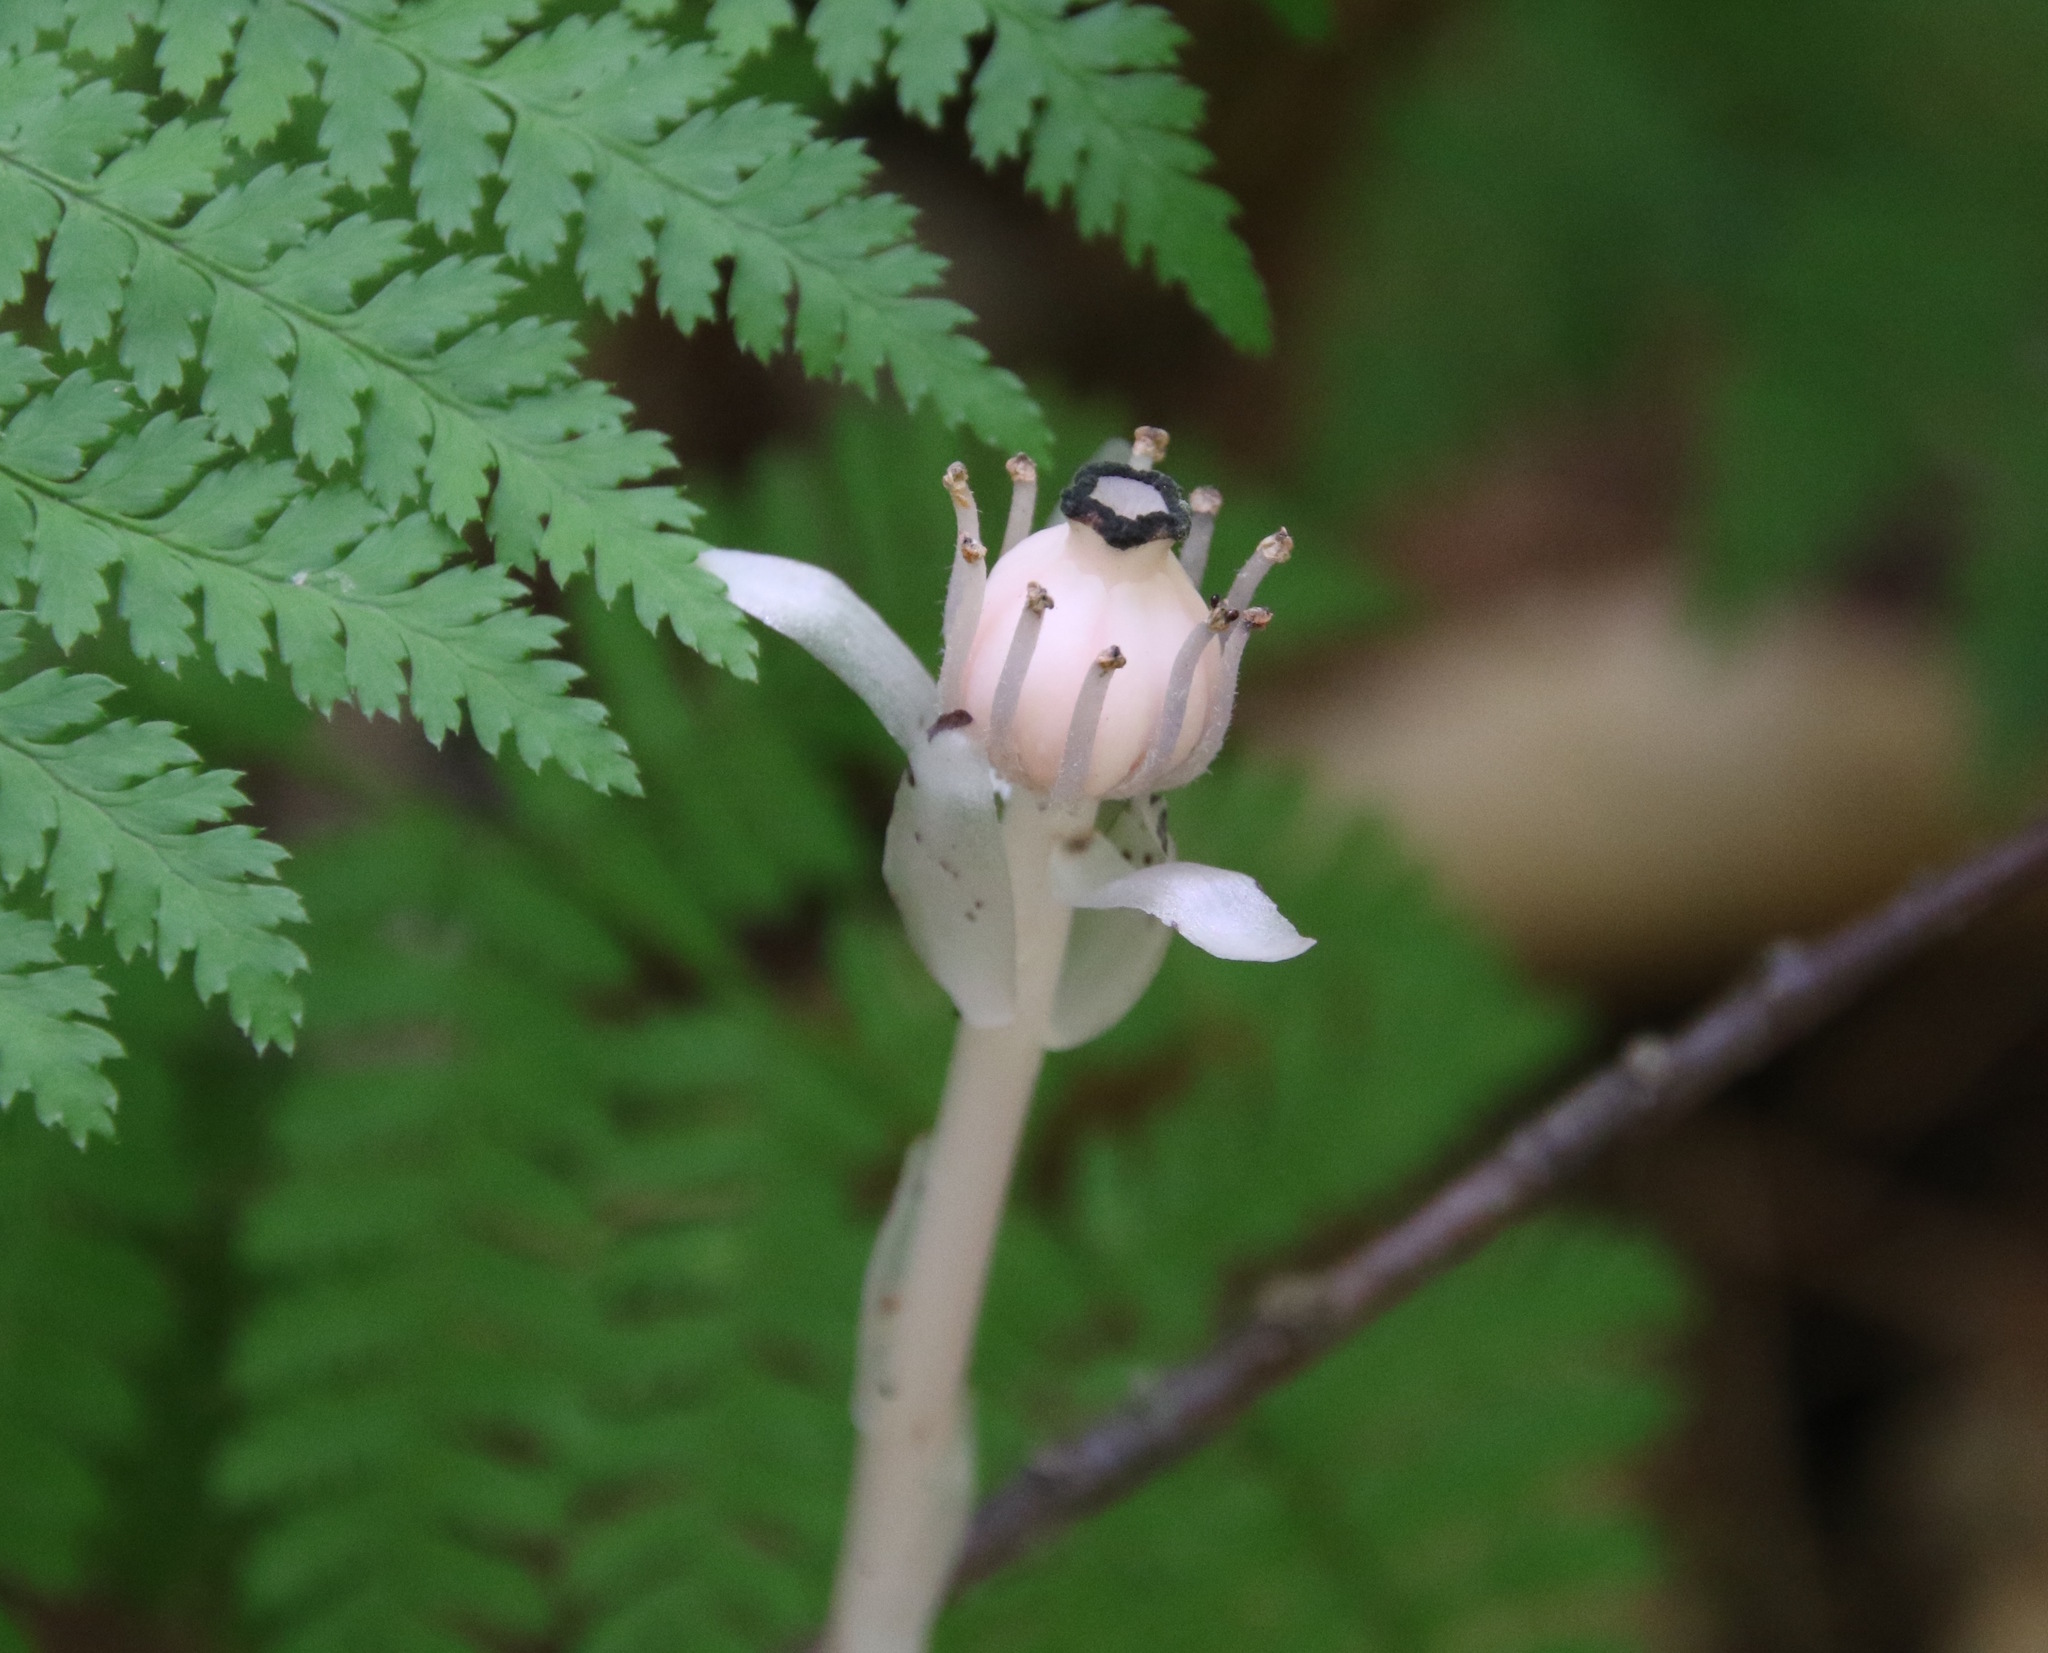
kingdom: Plantae
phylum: Tracheophyta
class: Magnoliopsida
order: Ericales
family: Ericaceae
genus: Monotropa
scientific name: Monotropa uniflora
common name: Convulsion root
